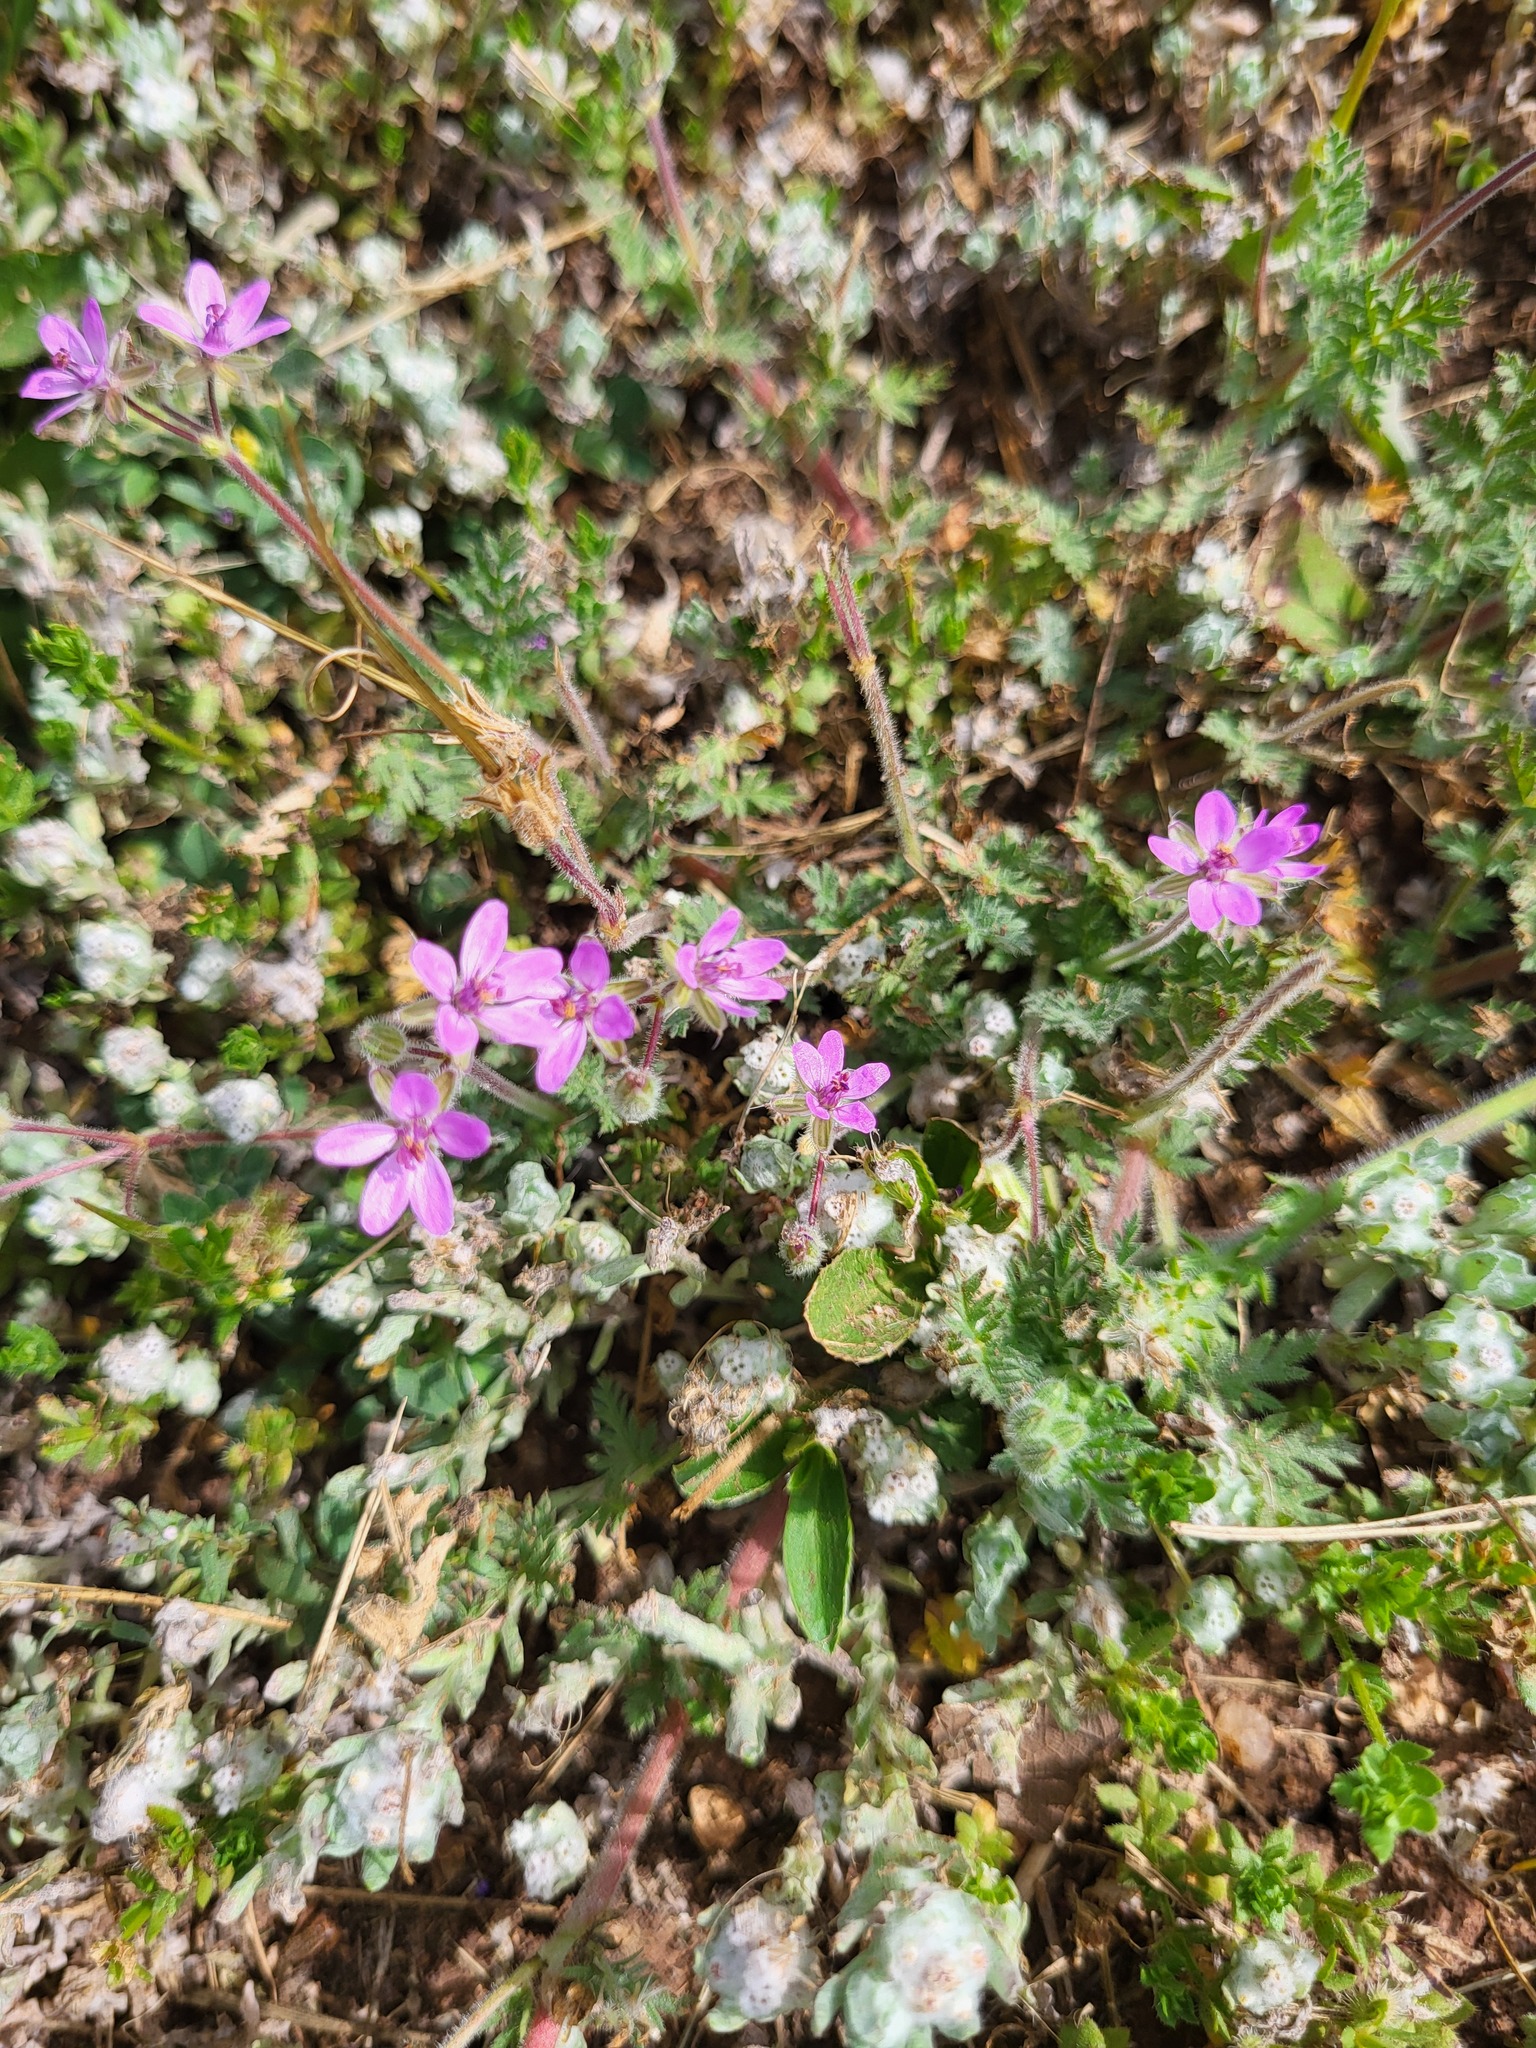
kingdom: Plantae
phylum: Tracheophyta
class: Magnoliopsida
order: Geraniales
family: Geraniaceae
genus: Erodium
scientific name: Erodium cicutarium
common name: Common stork's-bill
